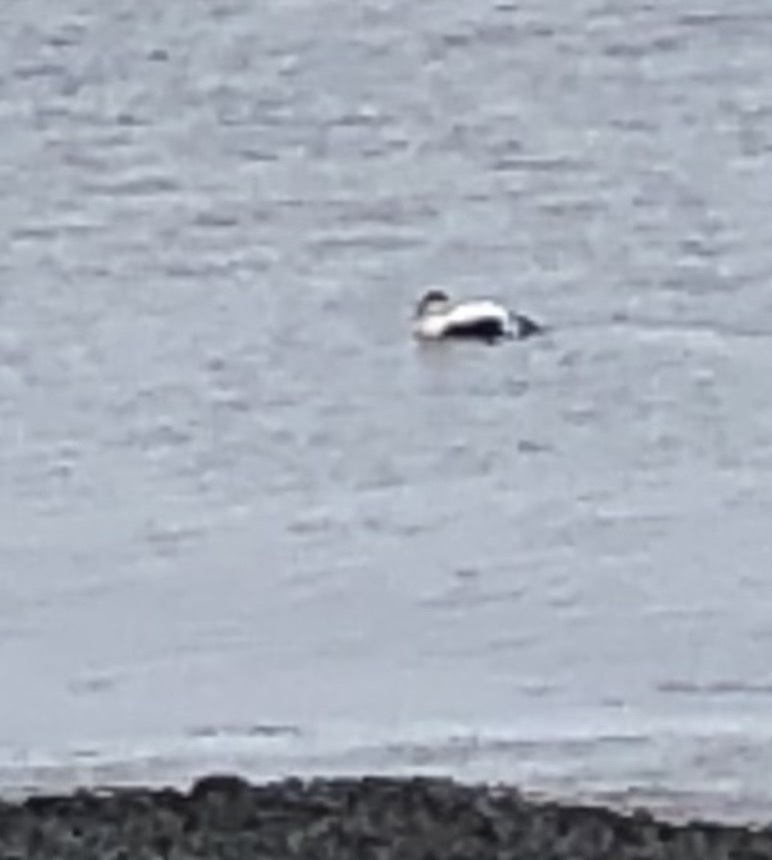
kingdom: Animalia
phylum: Chordata
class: Aves
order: Anseriformes
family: Anatidae
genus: Somateria
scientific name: Somateria mollissima
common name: Common eider
